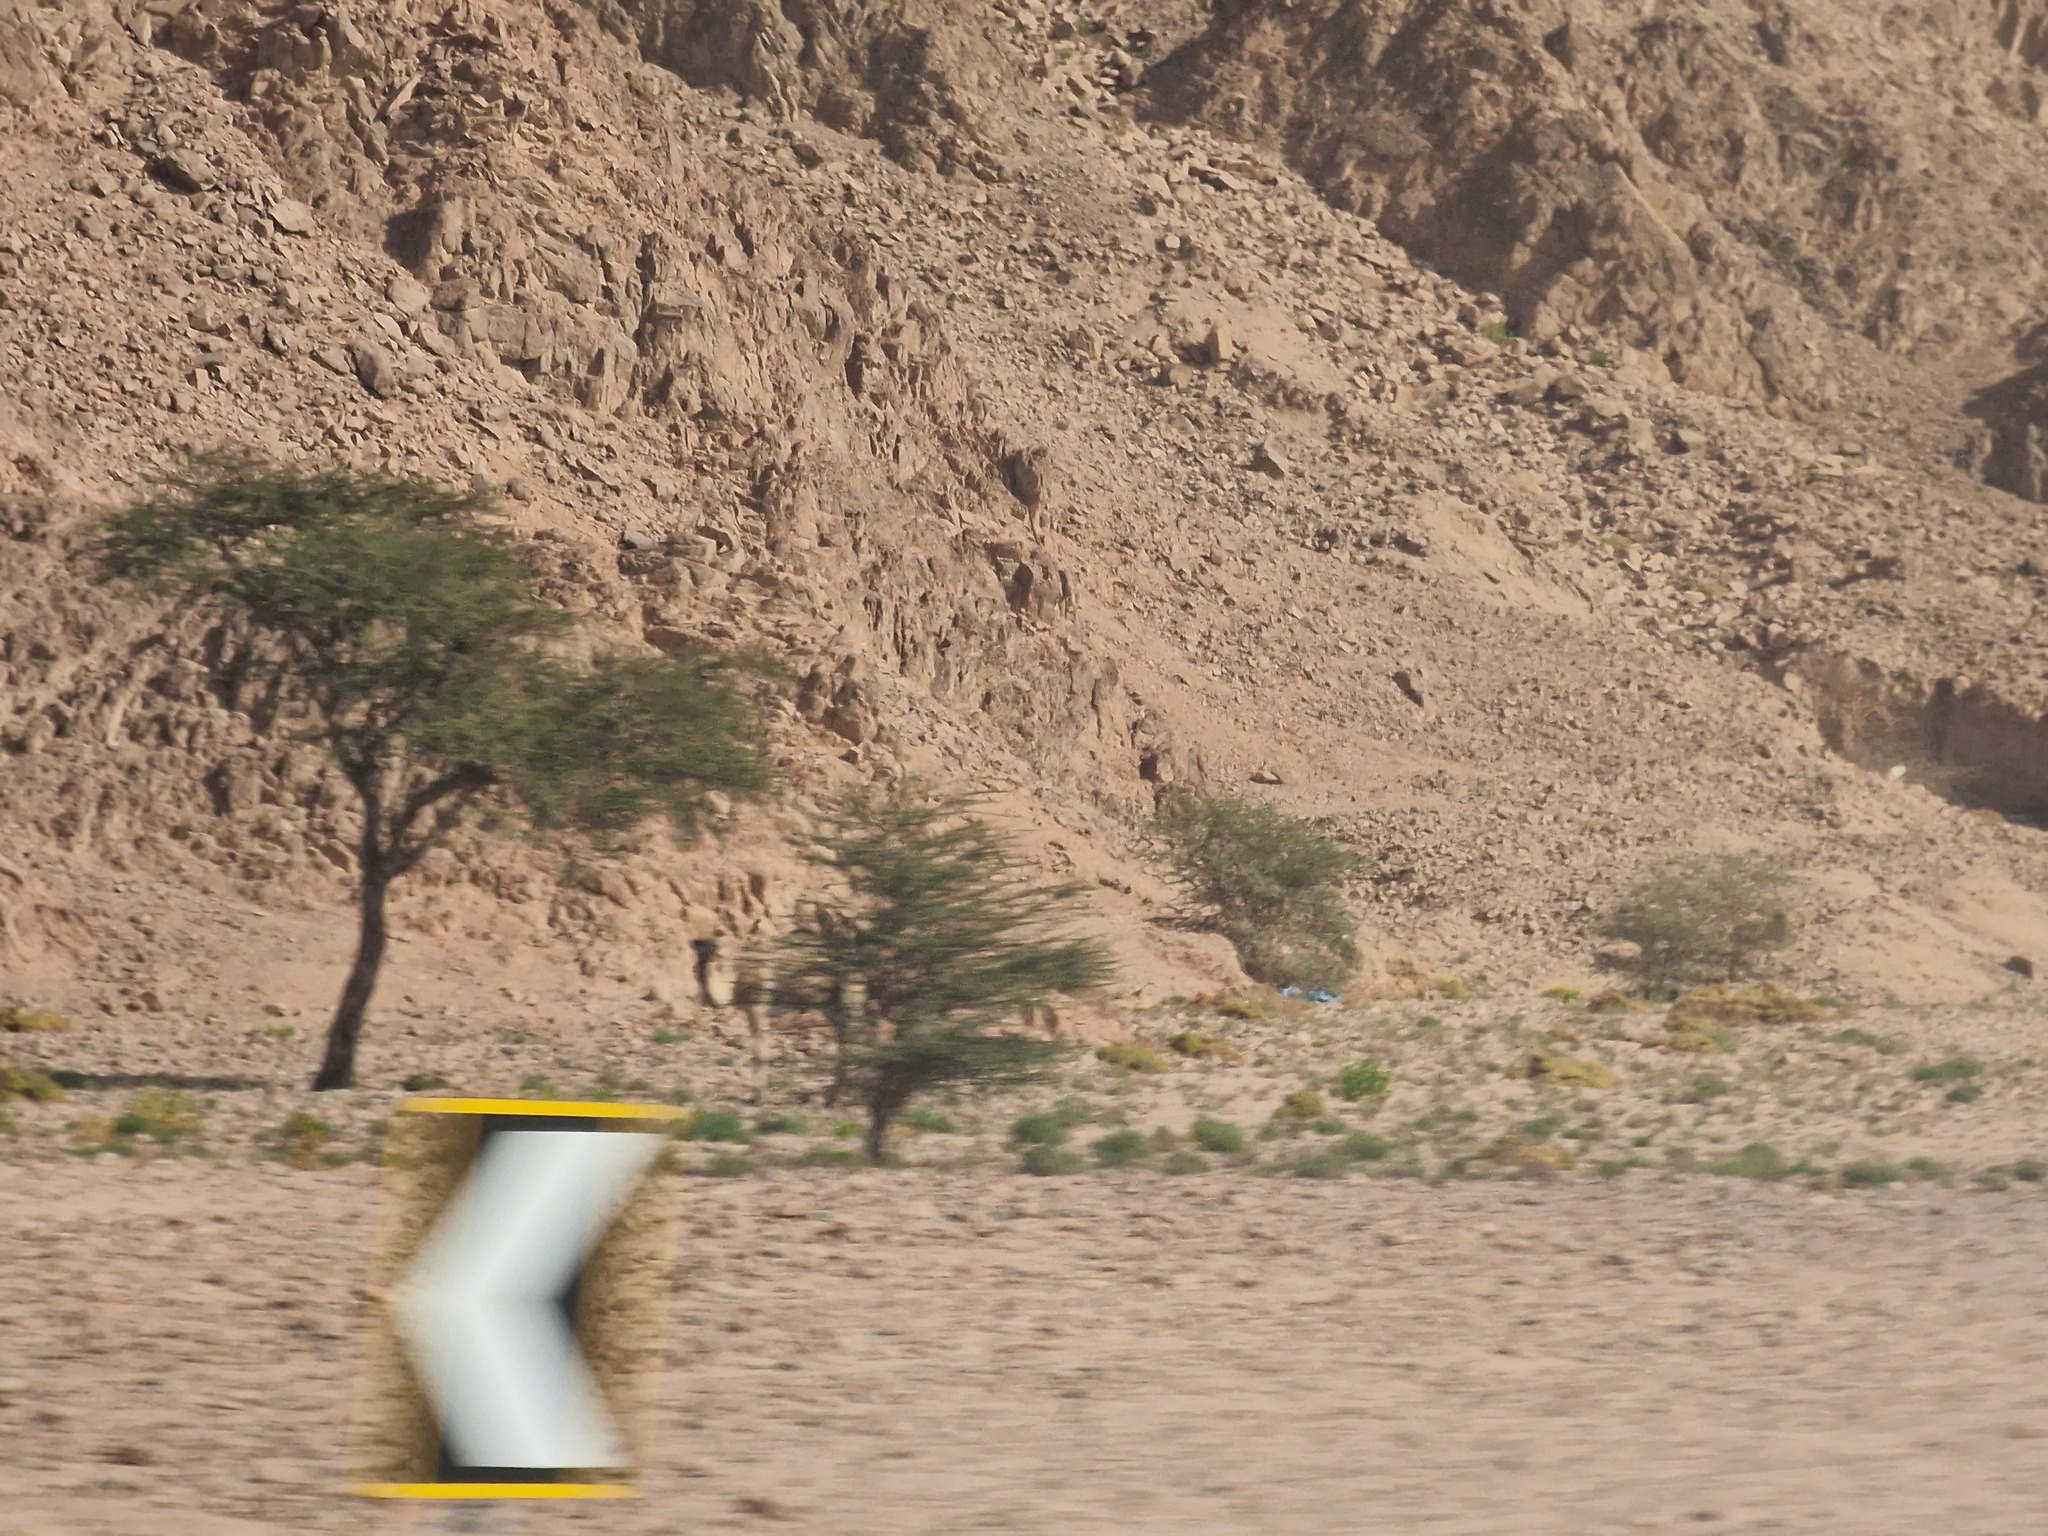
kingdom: Animalia
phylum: Chordata
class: Mammalia
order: Artiodactyla
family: Camelidae
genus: Camelus
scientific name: Camelus dromedarius
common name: One-humped camel
